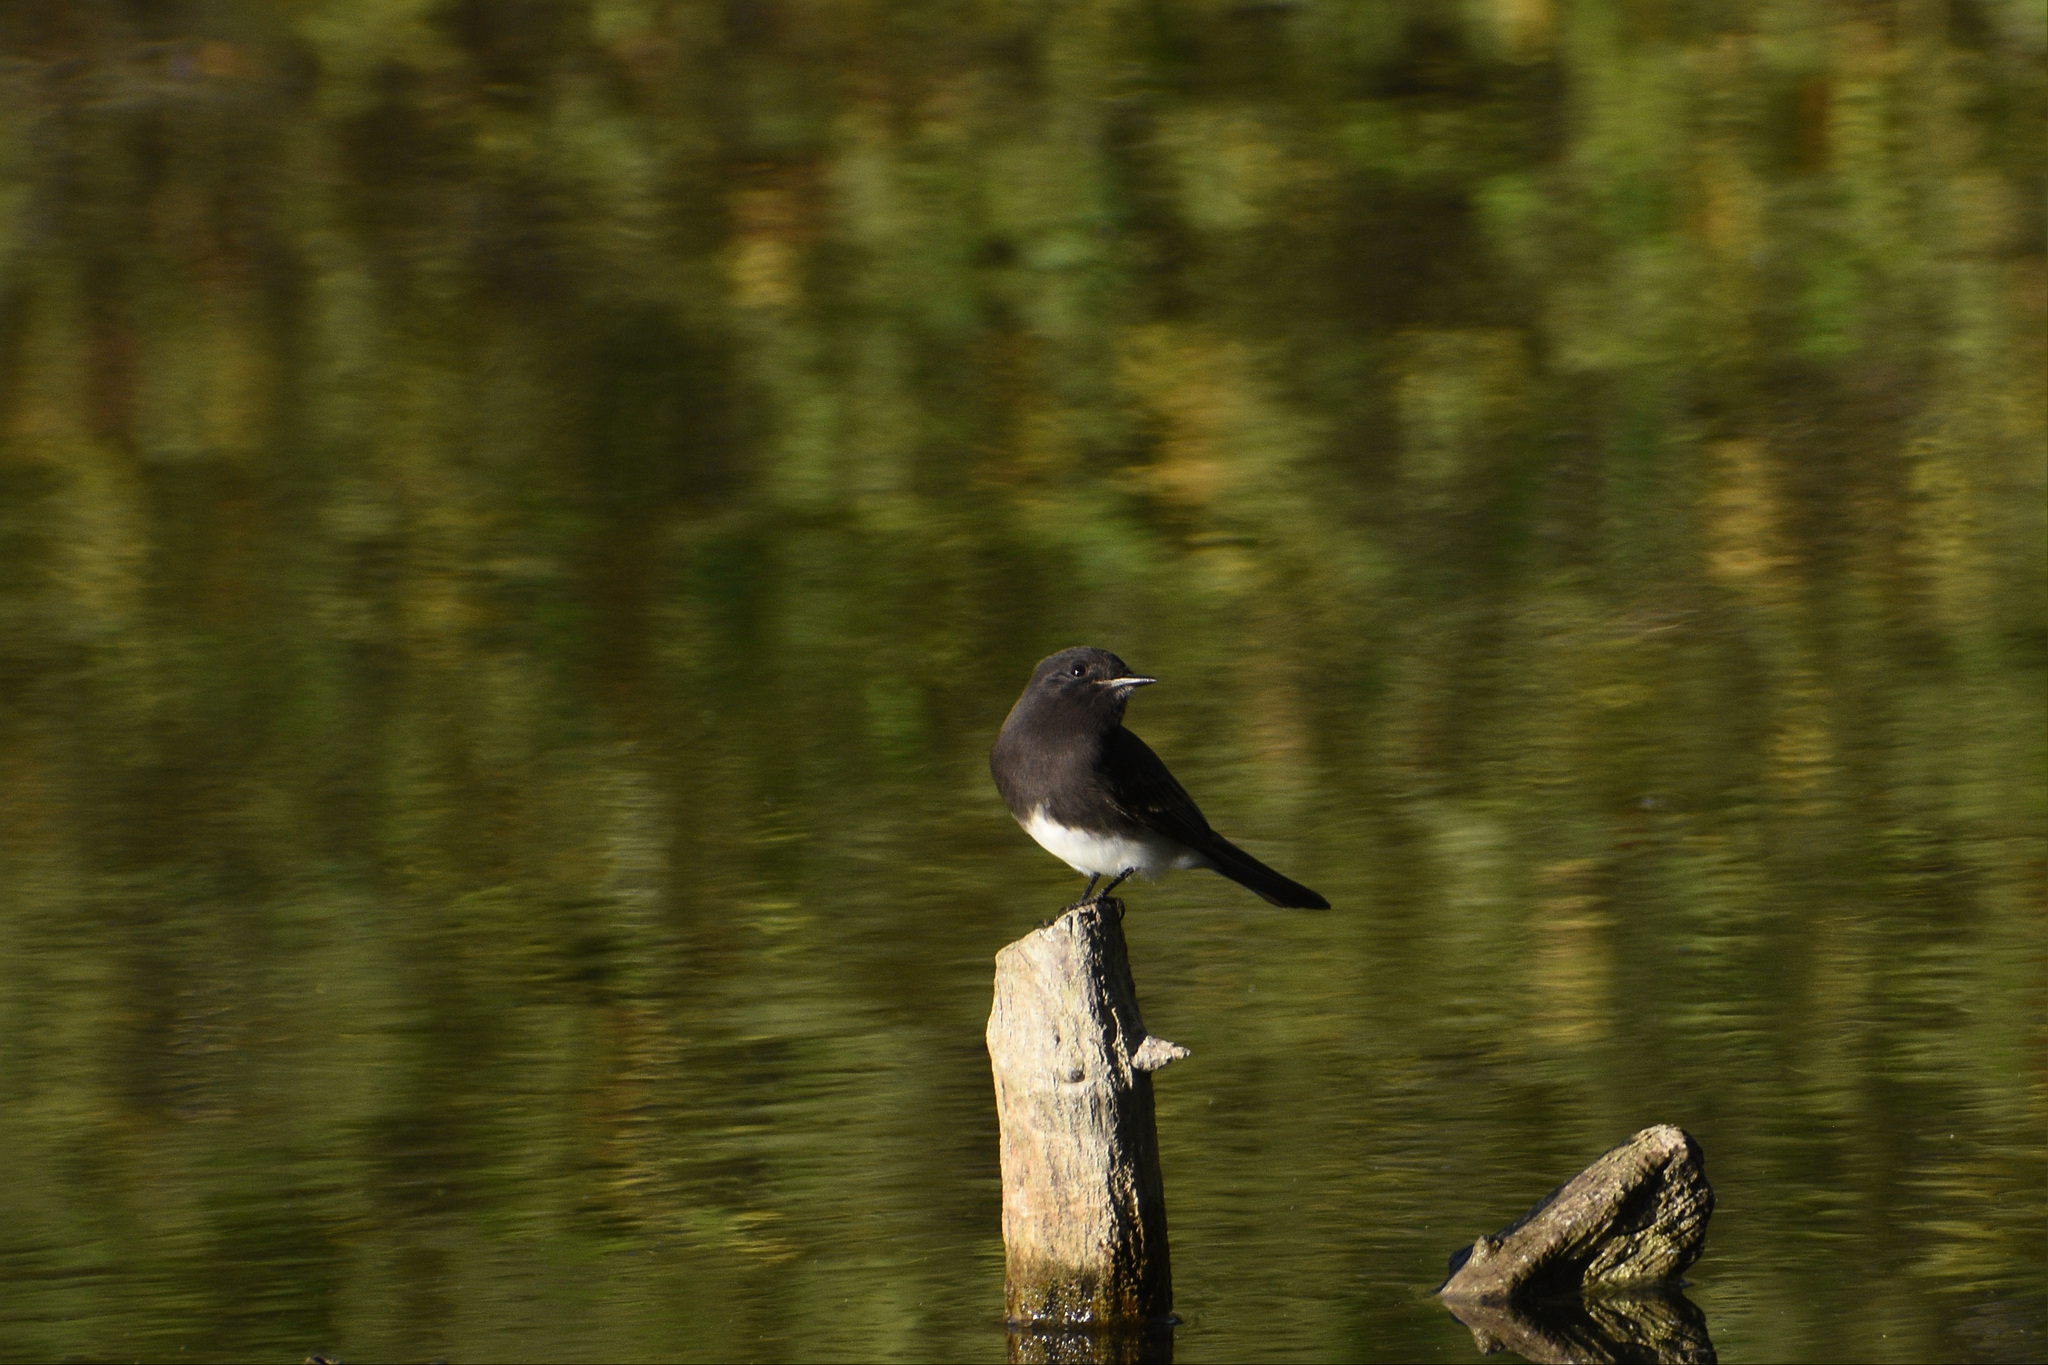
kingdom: Animalia
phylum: Chordata
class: Aves
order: Passeriformes
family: Tyrannidae
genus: Sayornis
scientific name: Sayornis nigricans
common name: Black phoebe
